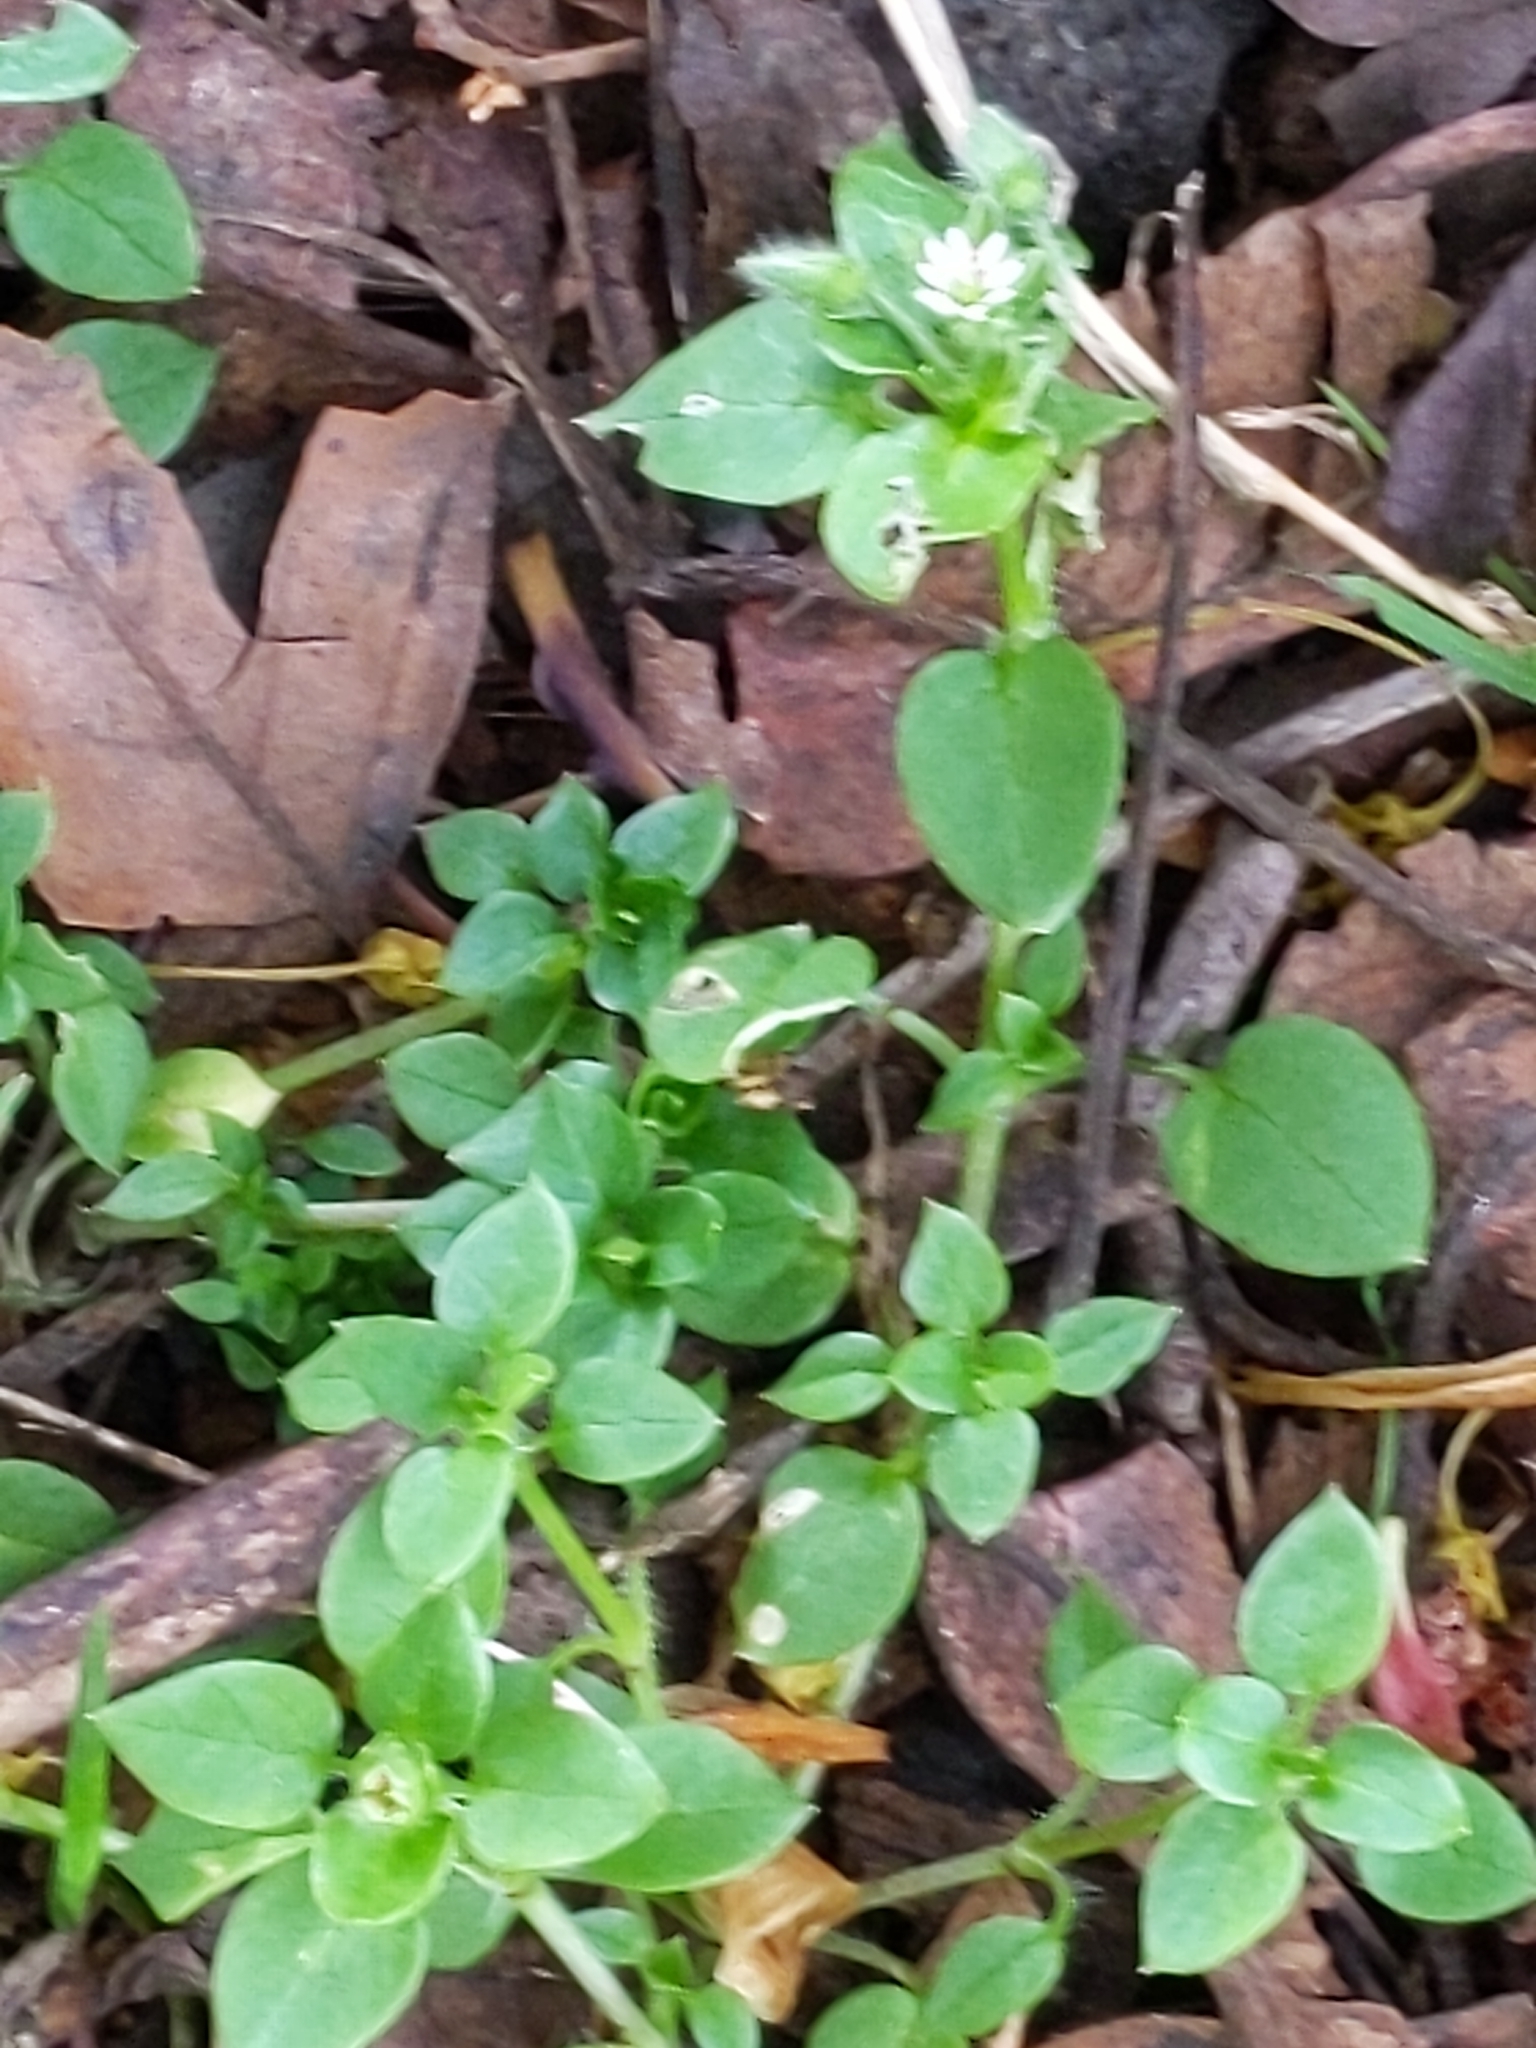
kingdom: Plantae
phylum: Tracheophyta
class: Magnoliopsida
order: Caryophyllales
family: Caryophyllaceae
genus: Stellaria
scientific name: Stellaria media
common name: Common chickweed
